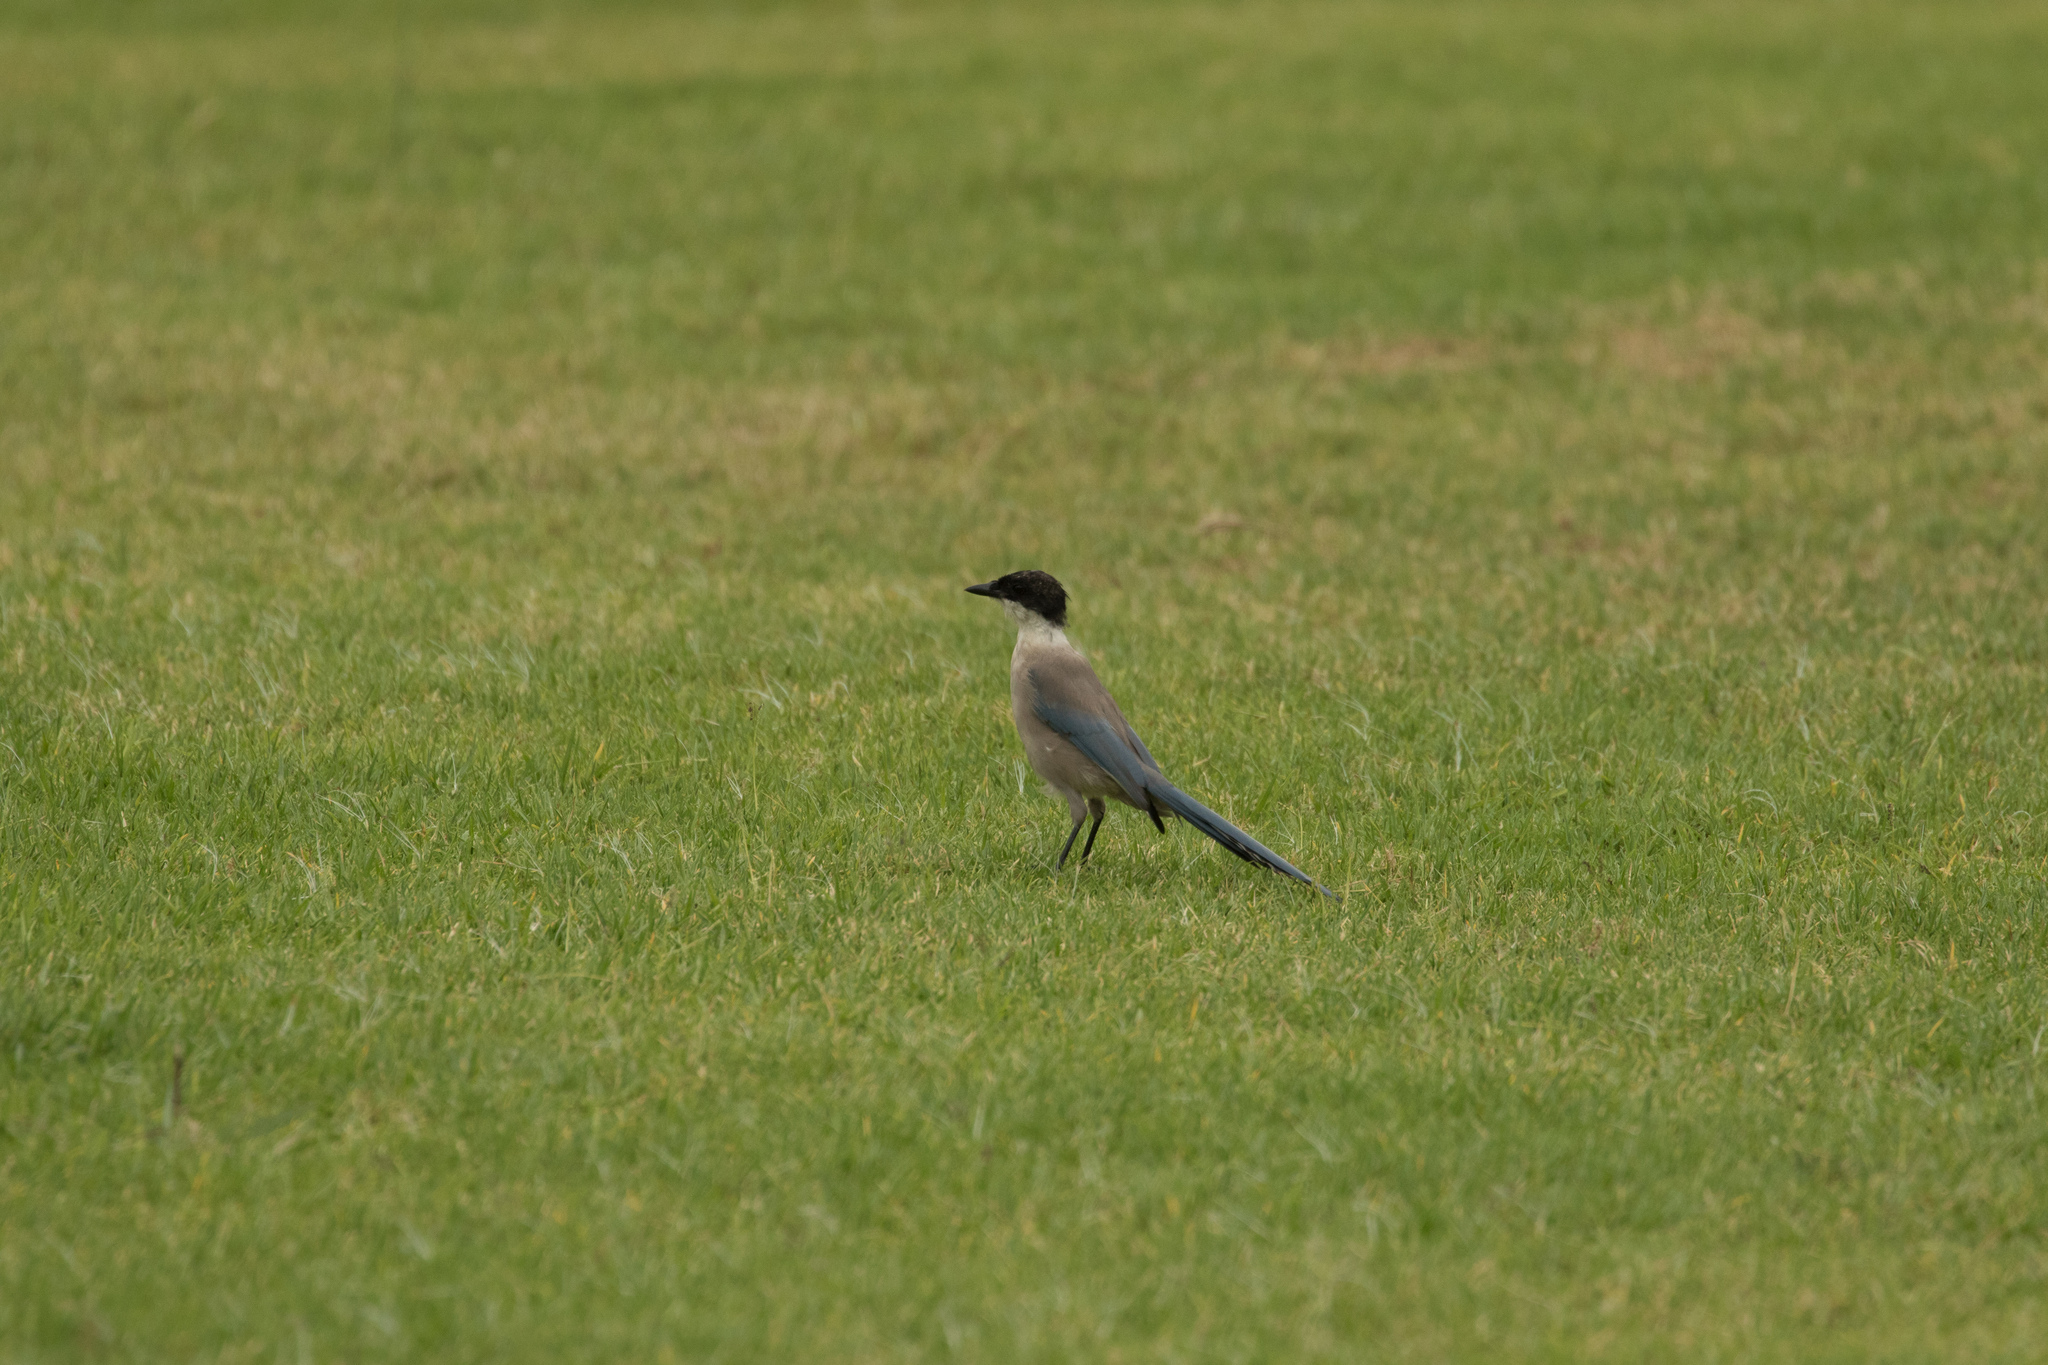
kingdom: Animalia
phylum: Chordata
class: Aves
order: Passeriformes
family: Corvidae
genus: Cyanopica
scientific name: Cyanopica cooki
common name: Iberian magpie
